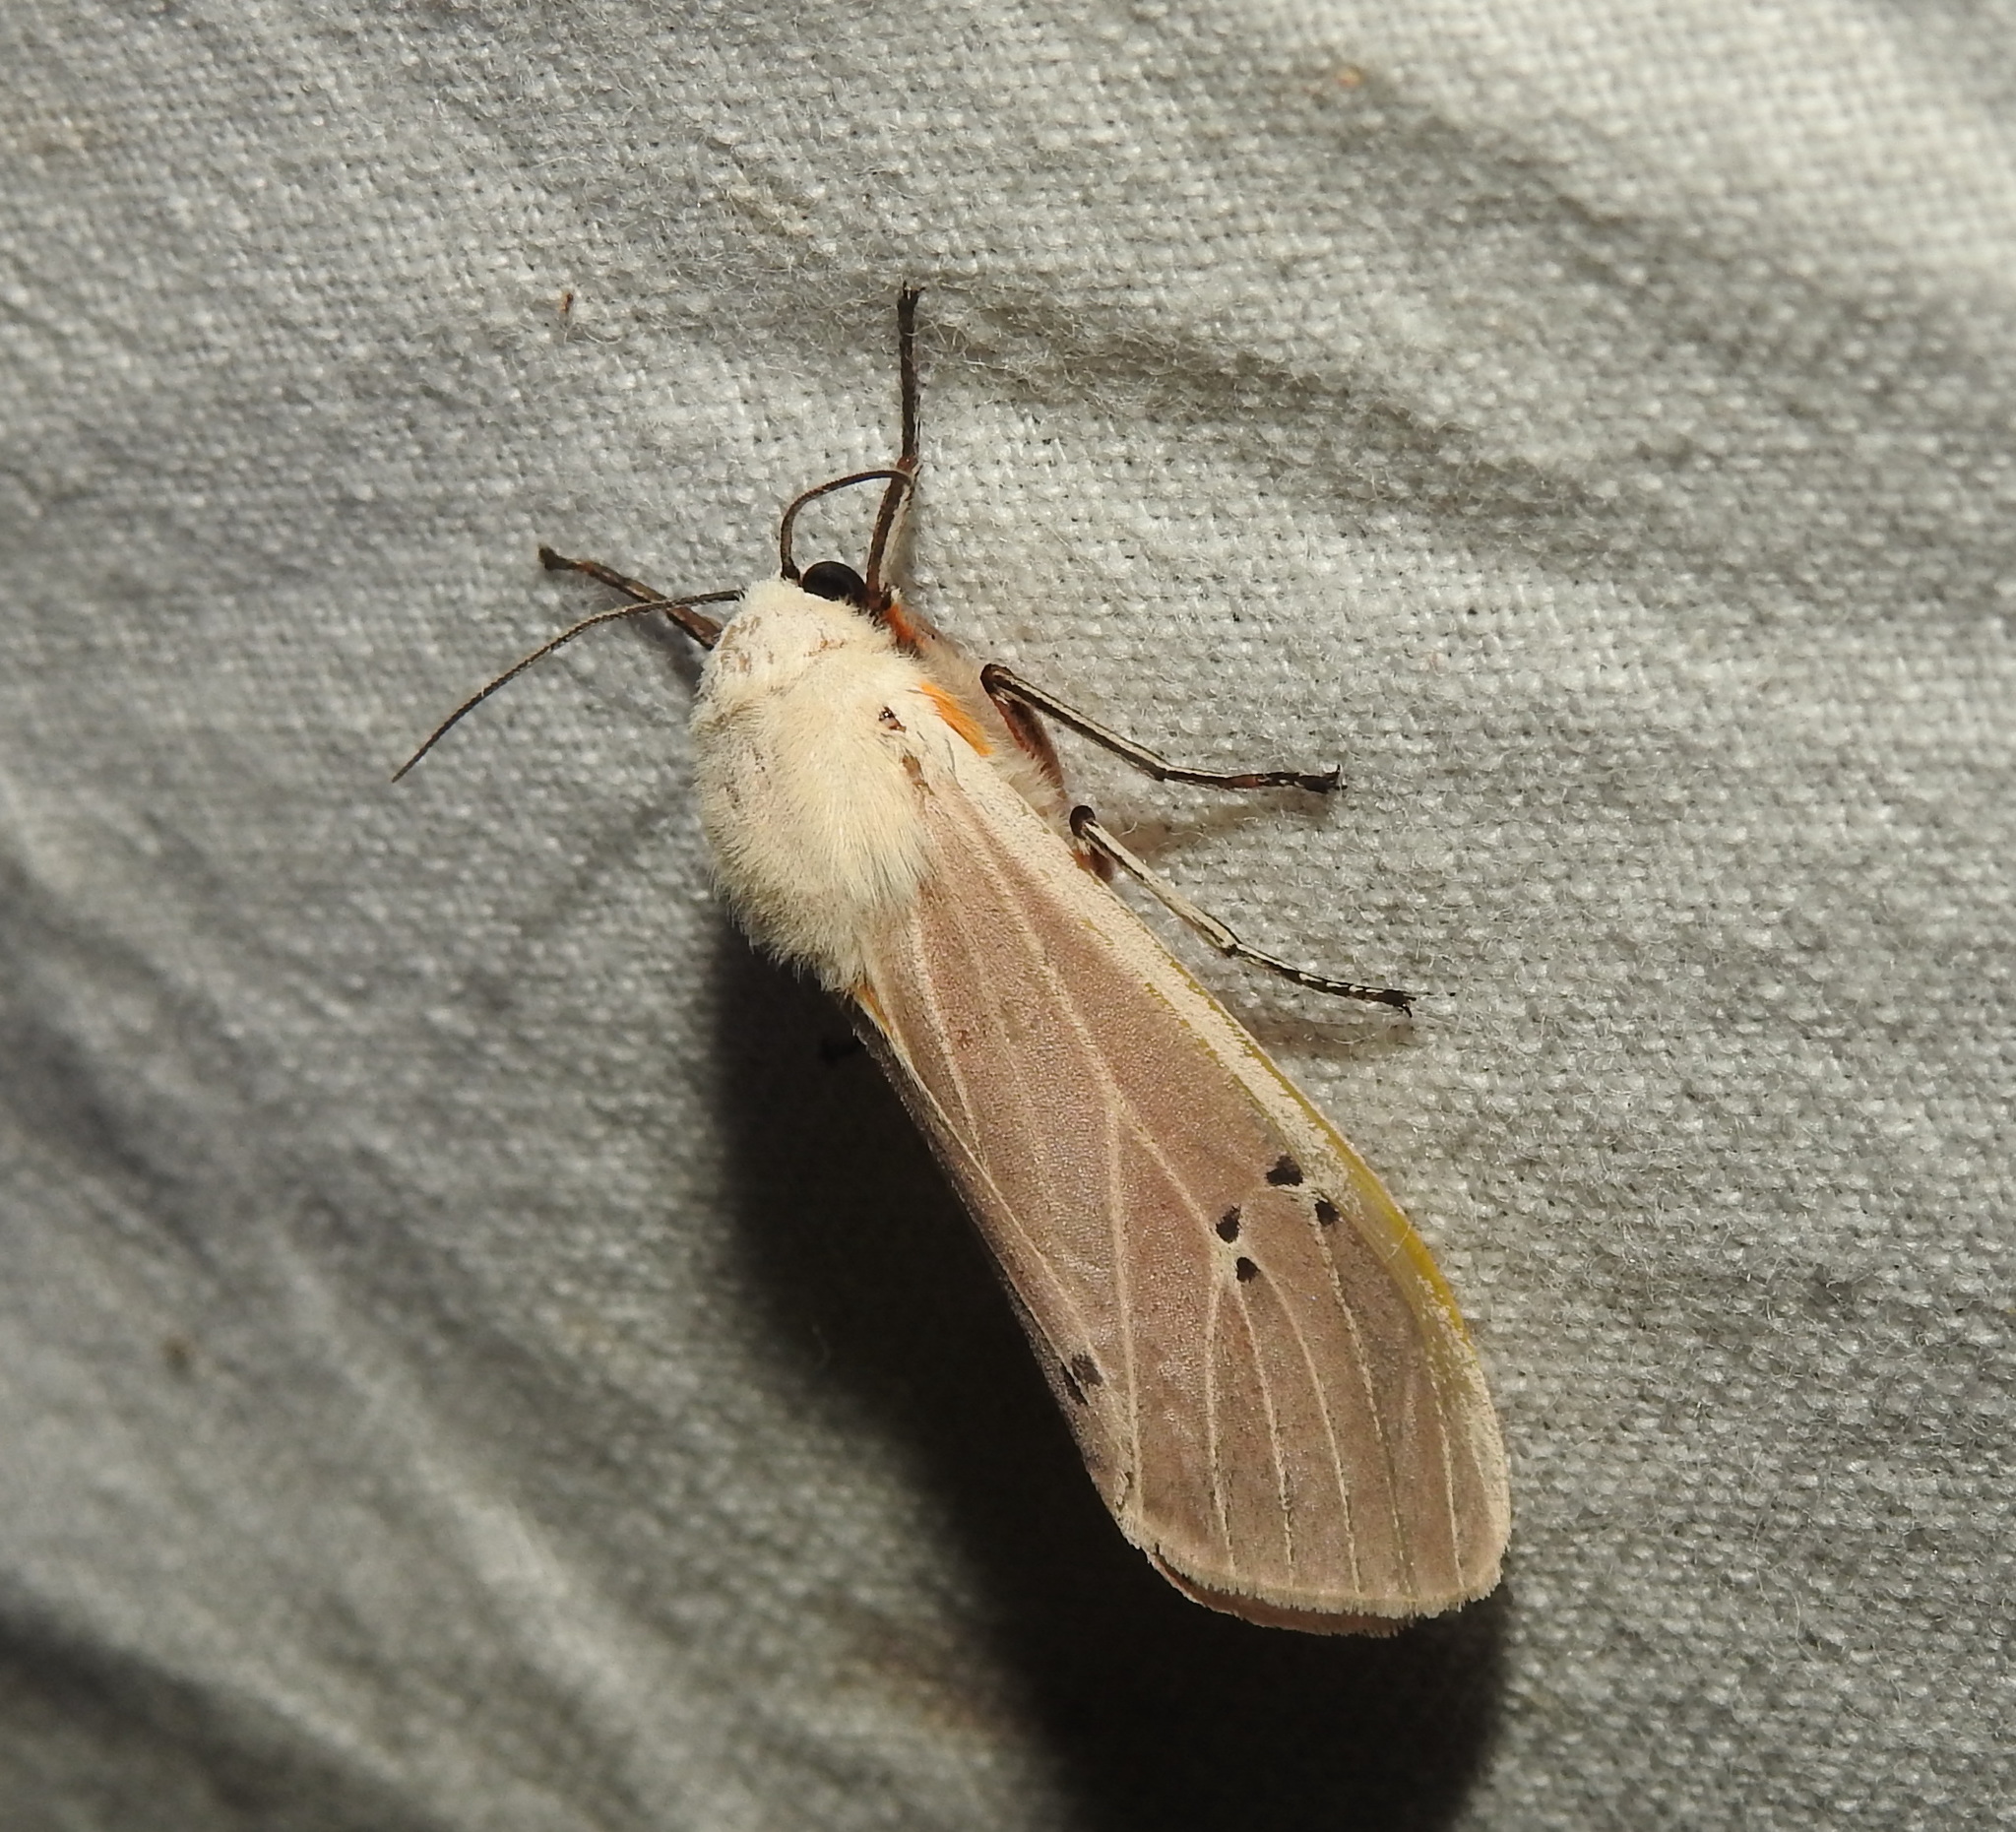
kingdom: Animalia
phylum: Arthropoda
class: Insecta
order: Lepidoptera
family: Erebidae
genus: Creatonotos
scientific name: Creatonotos transiens
